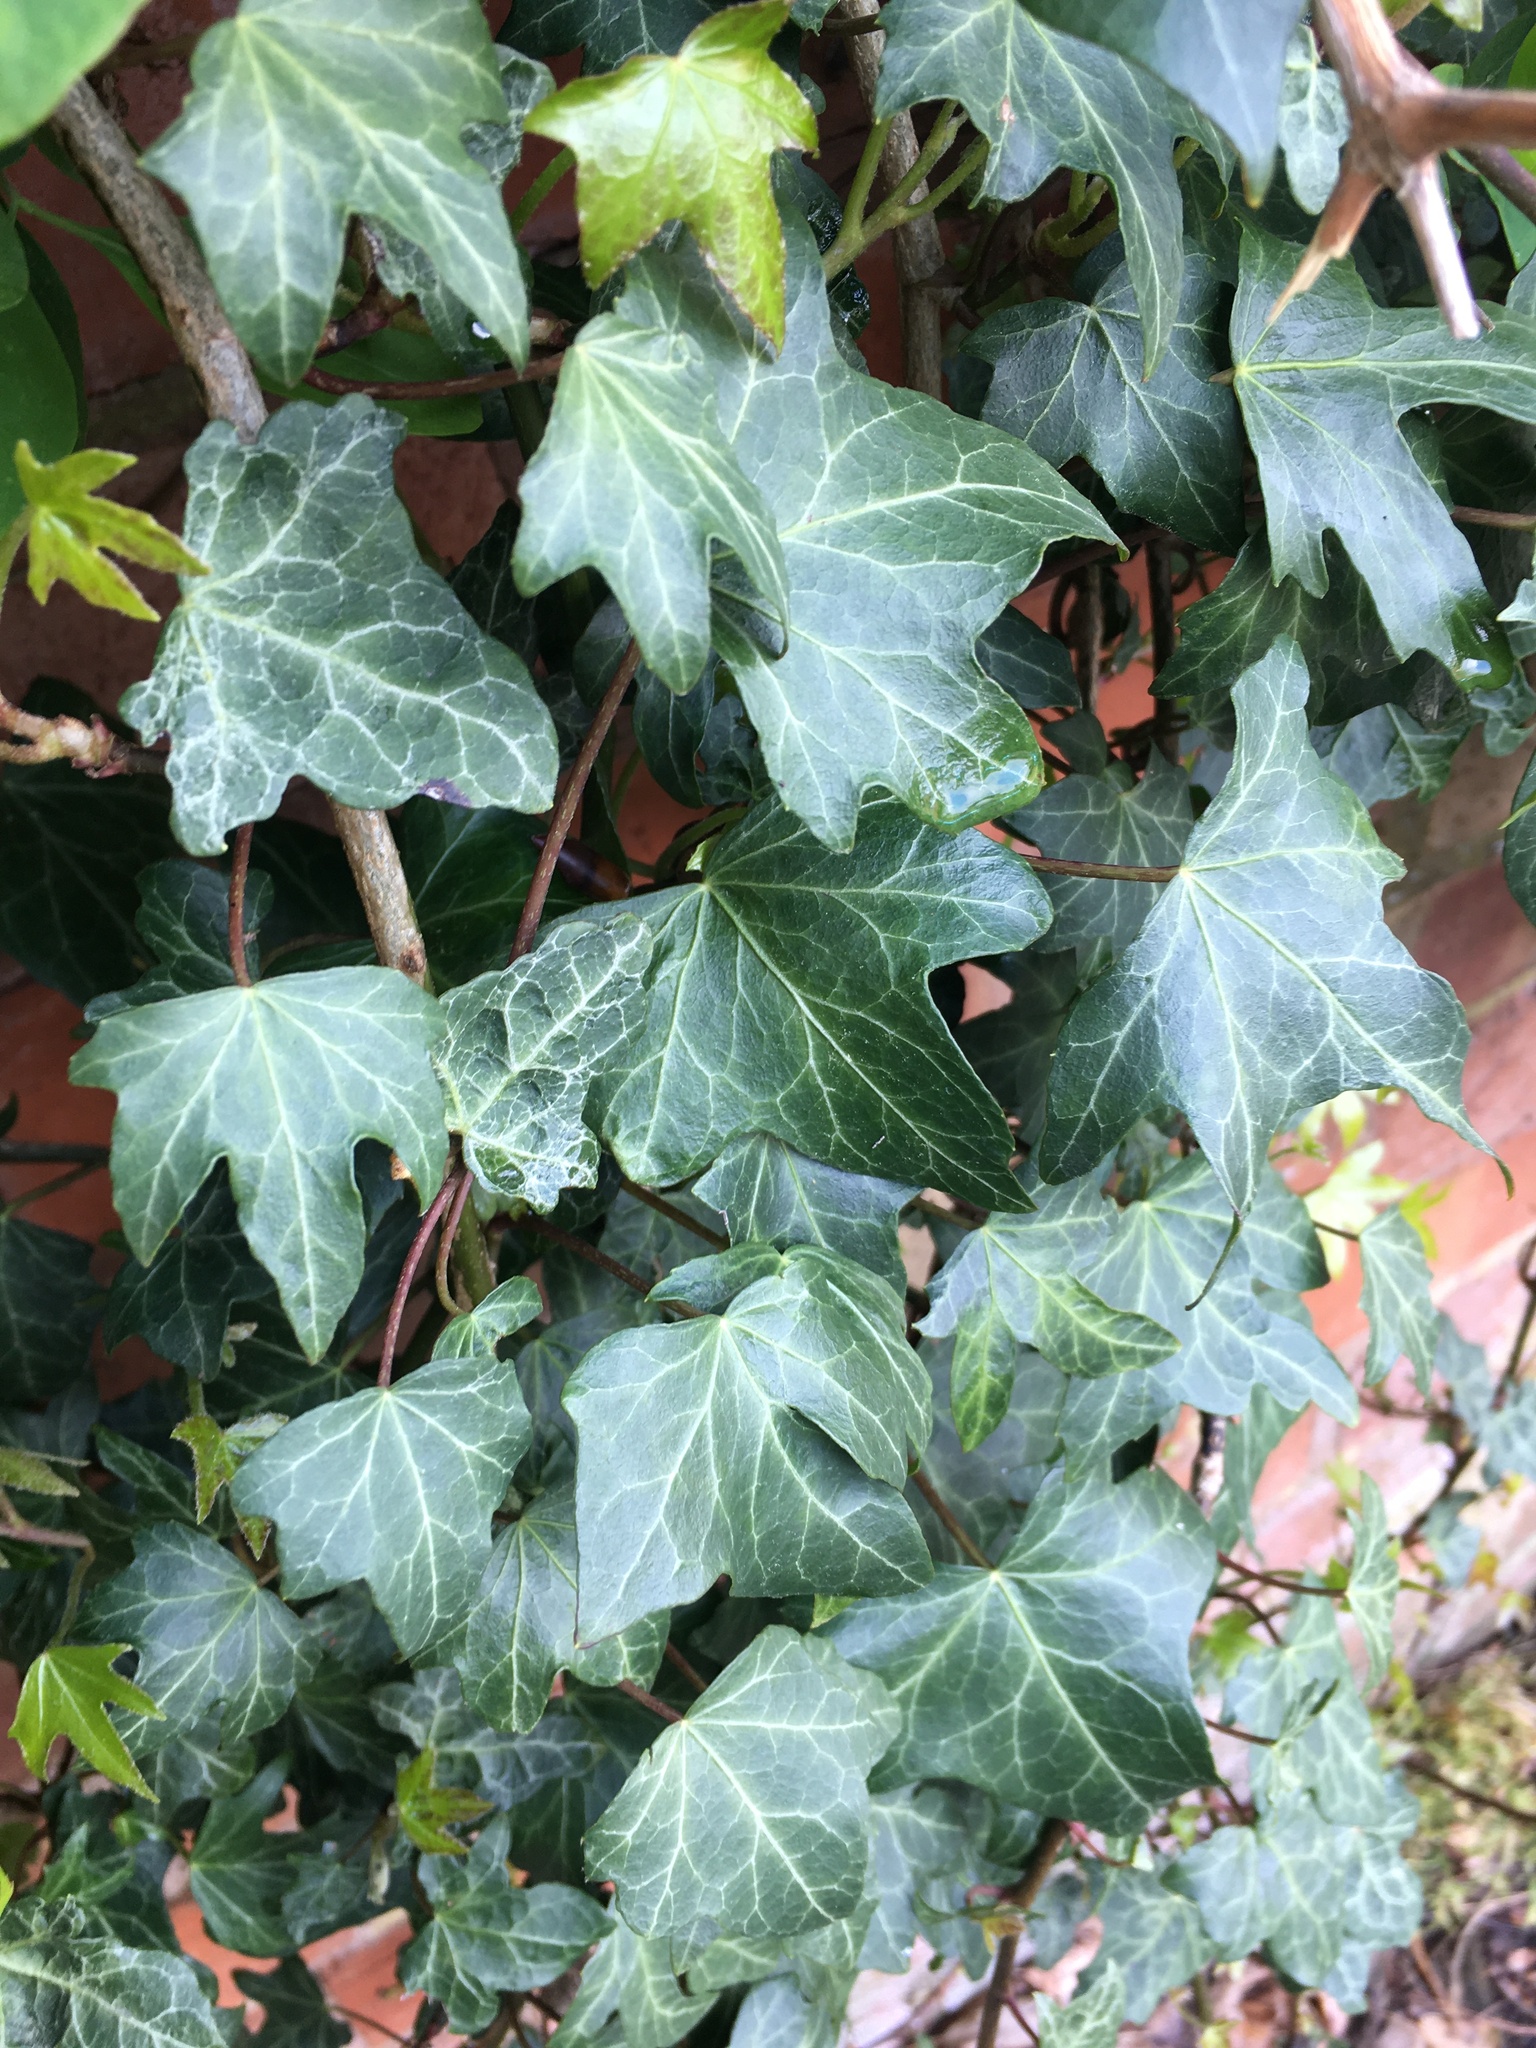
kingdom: Plantae
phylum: Tracheophyta
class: Magnoliopsida
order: Apiales
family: Araliaceae
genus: Hedera
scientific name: Hedera helix
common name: Ivy
